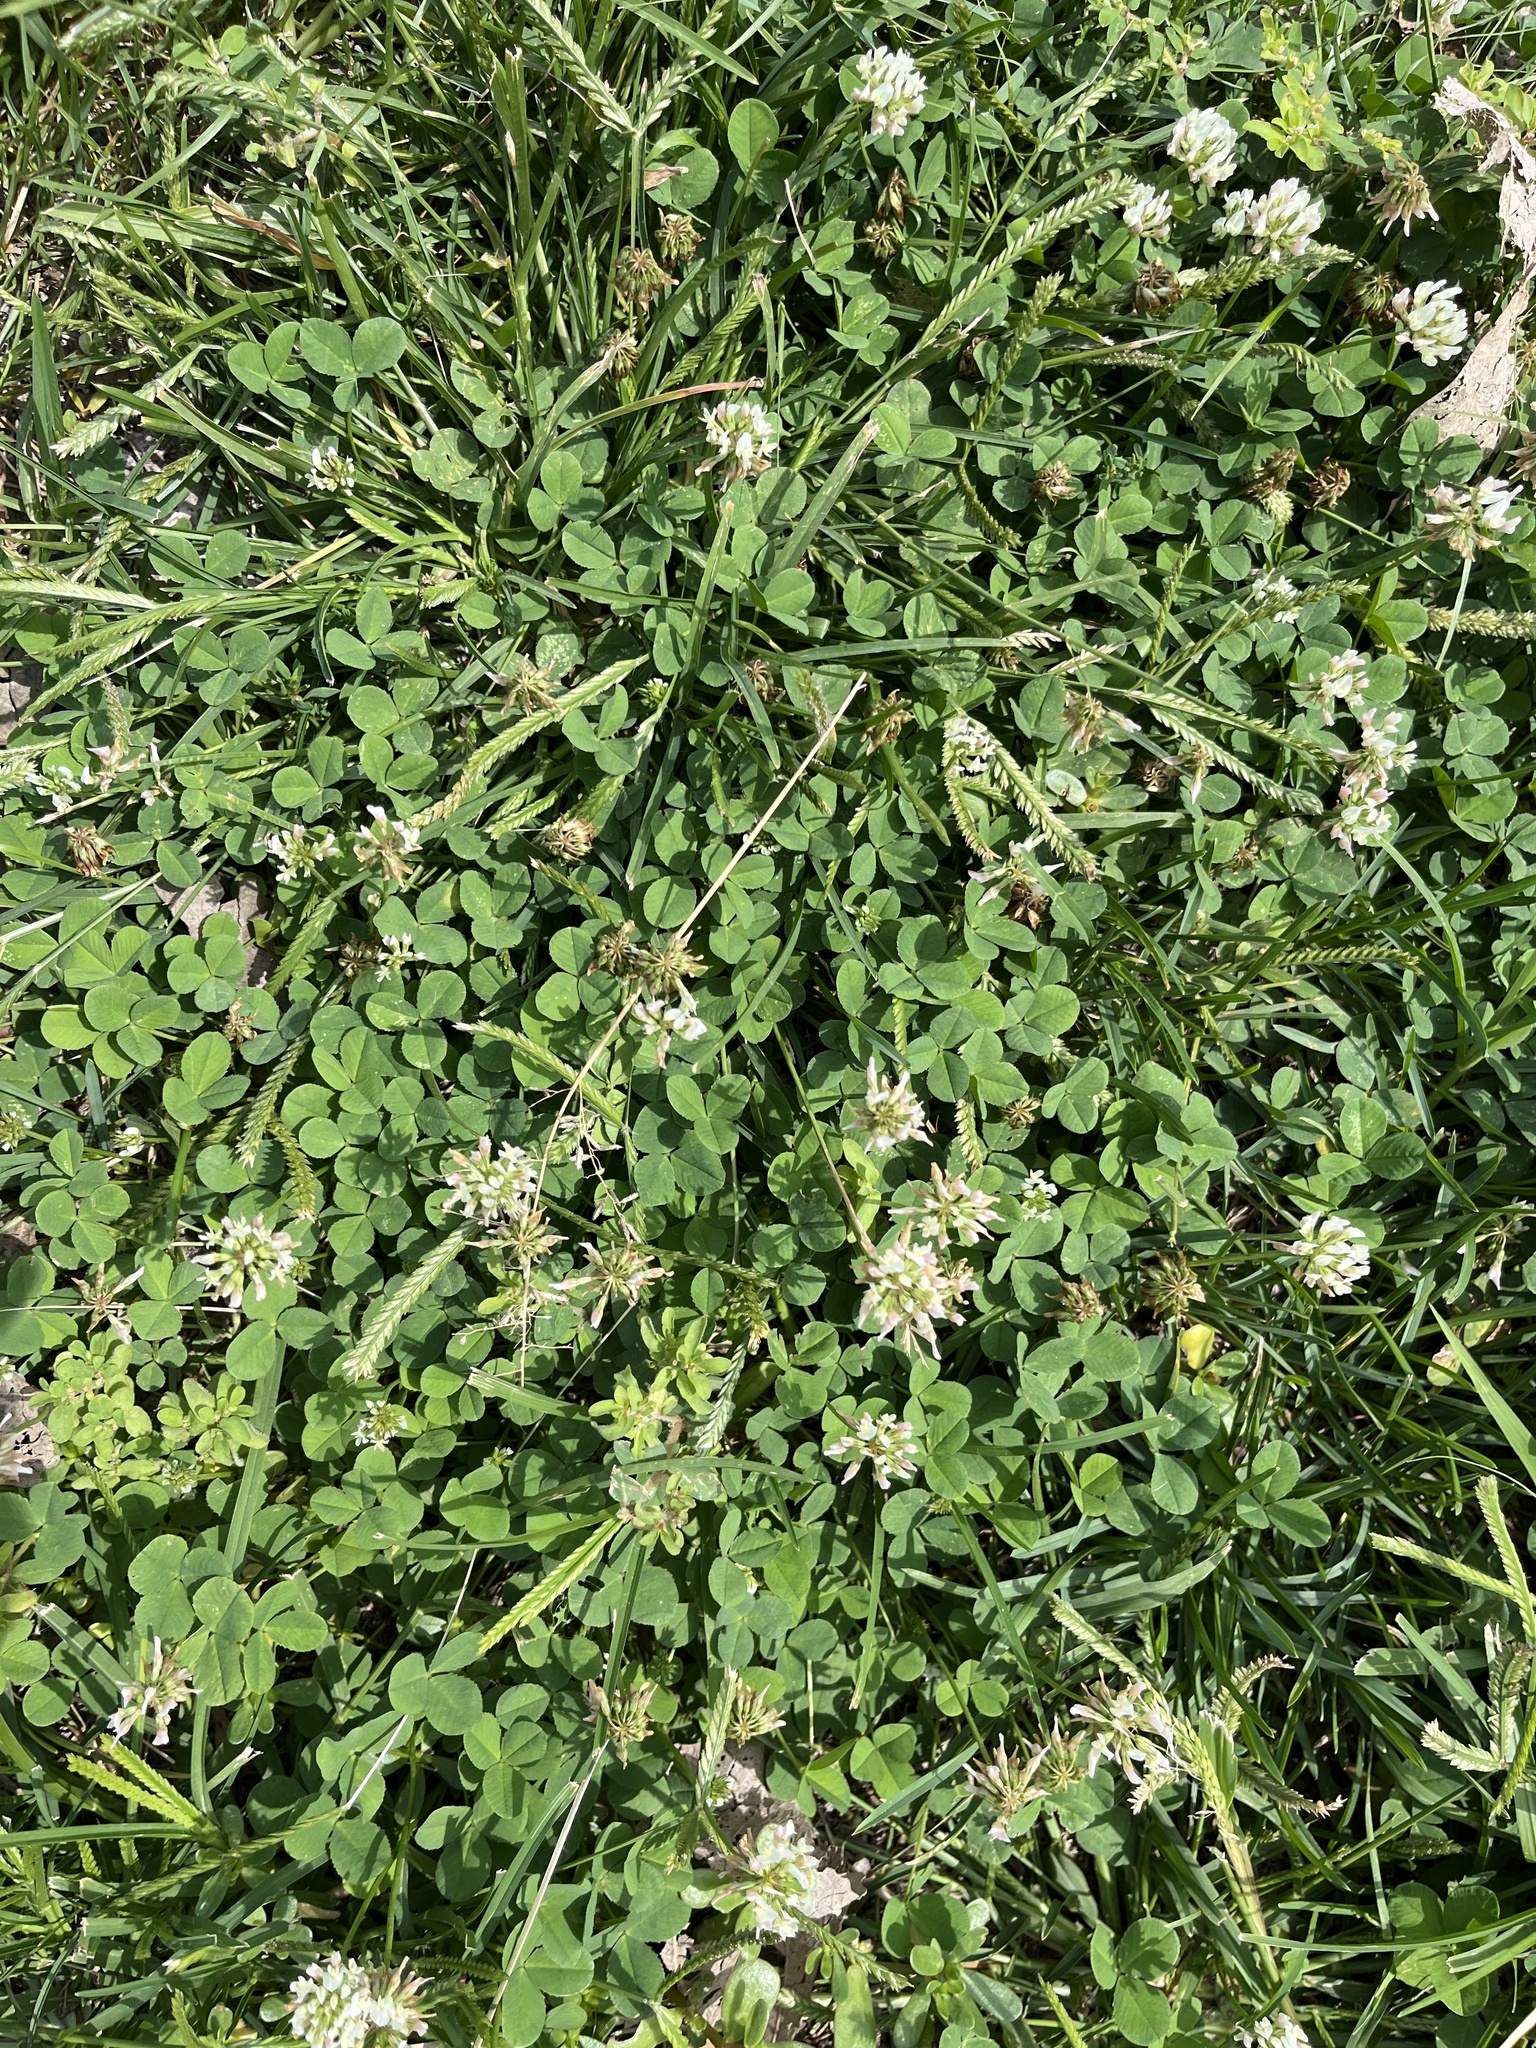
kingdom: Plantae
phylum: Tracheophyta
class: Magnoliopsida
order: Fabales
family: Fabaceae
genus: Trifolium
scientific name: Trifolium repens
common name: White clover
